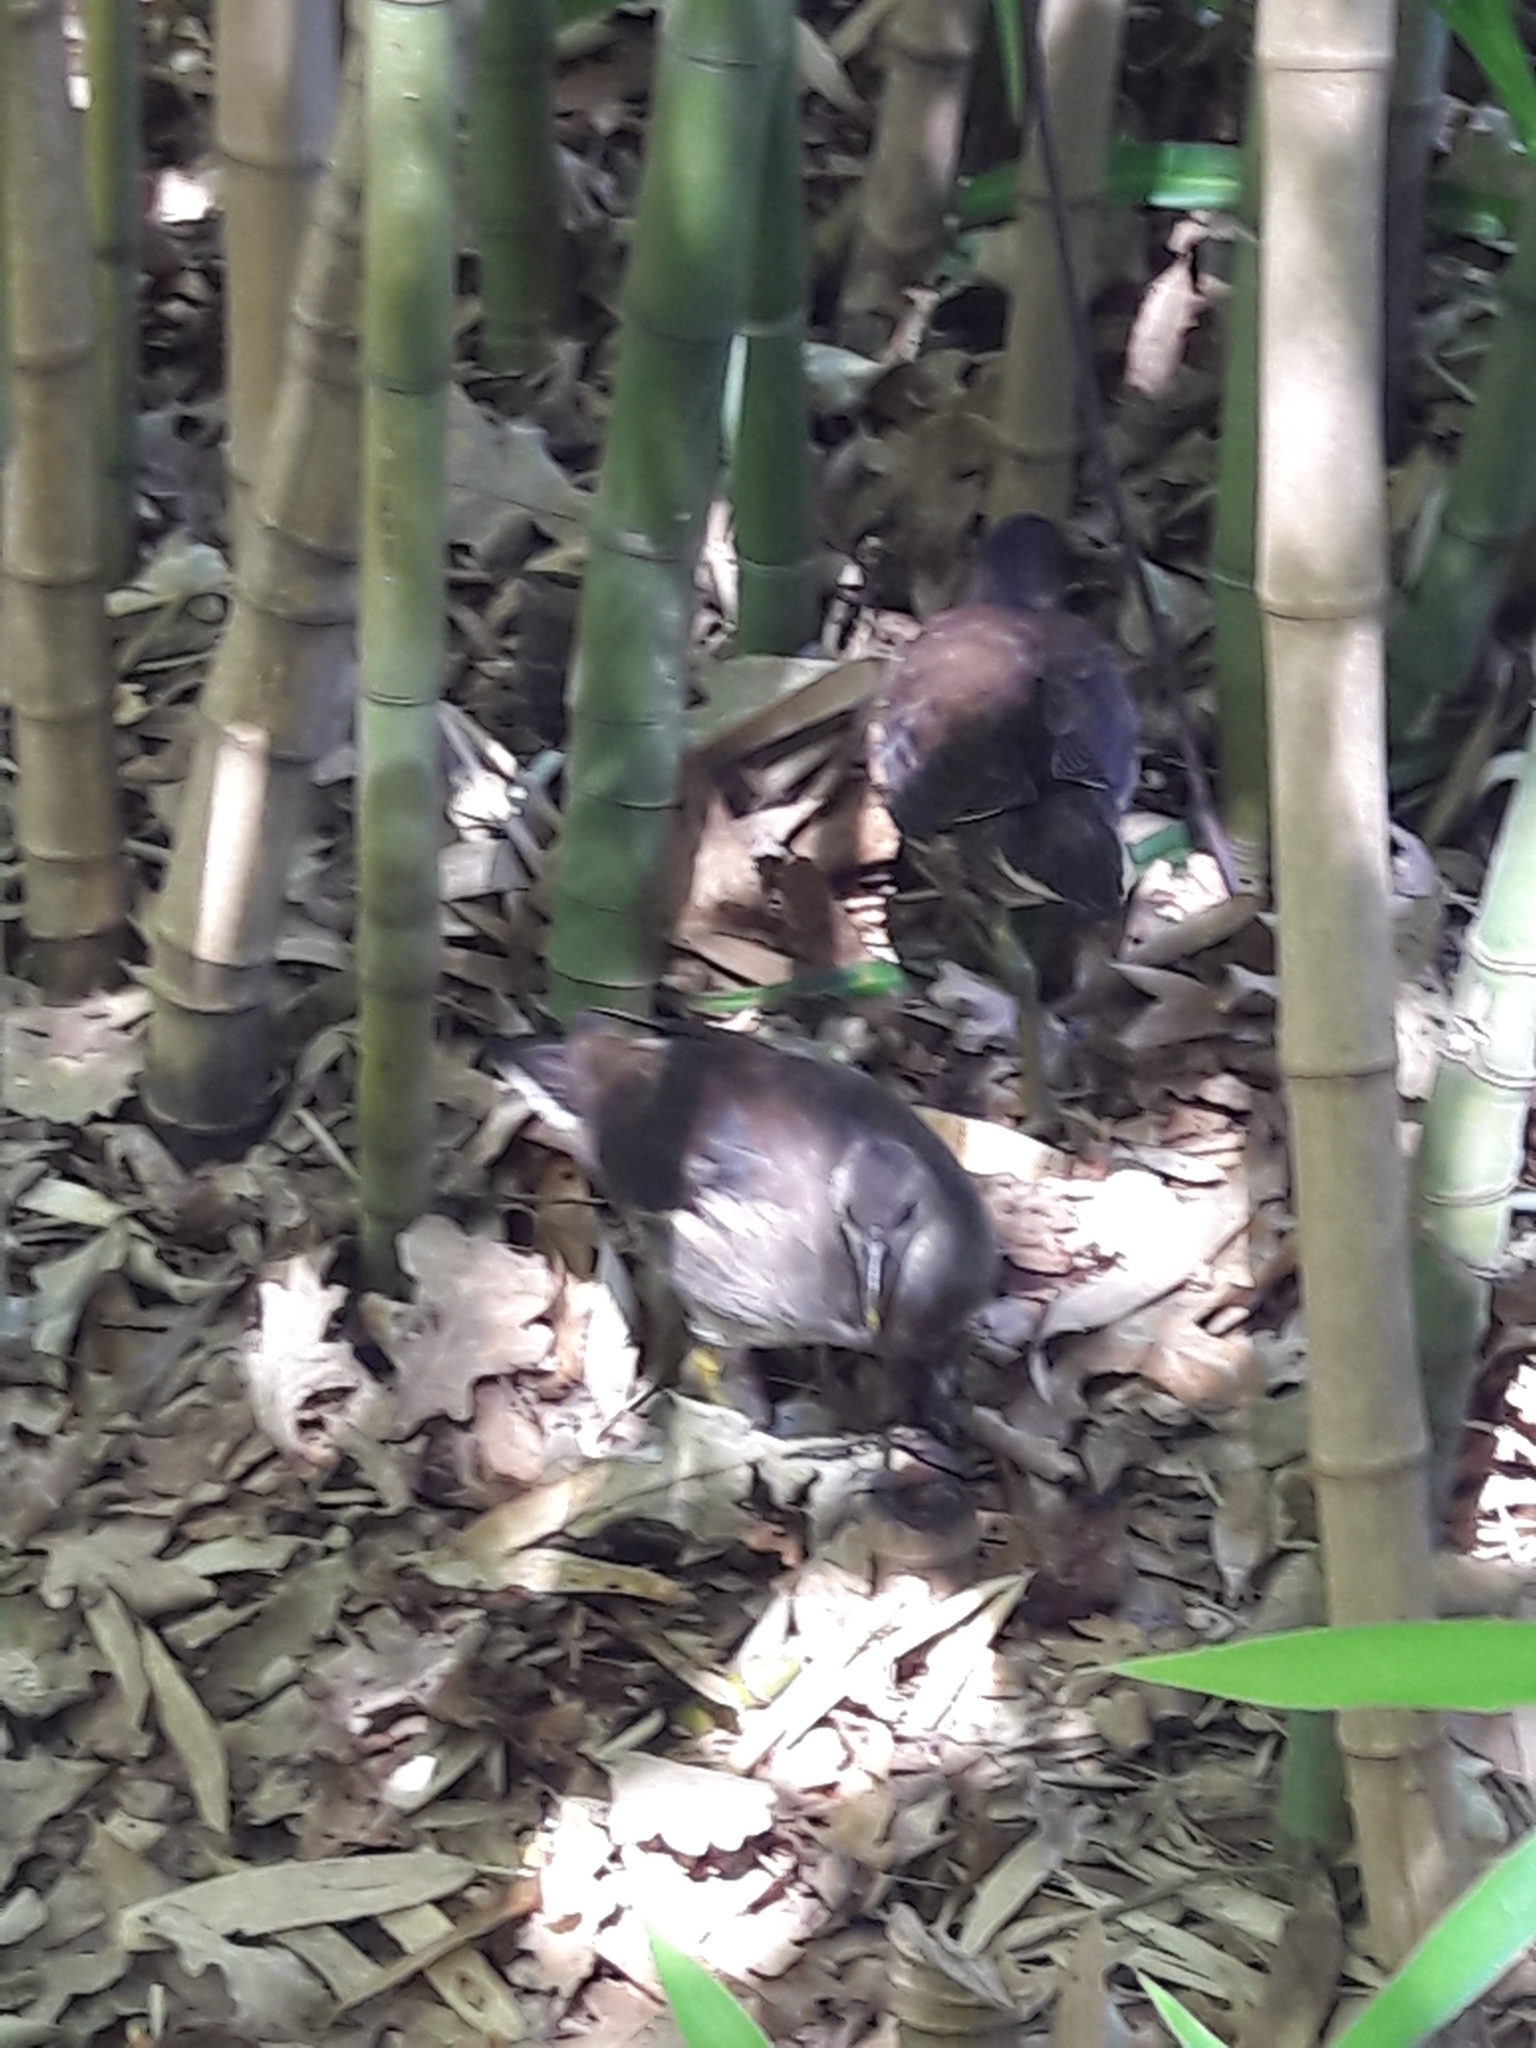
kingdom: Animalia
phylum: Chordata
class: Aves
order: Gruiformes
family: Rallidae
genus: Gallinula
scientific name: Gallinula chloropus
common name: Common moorhen
